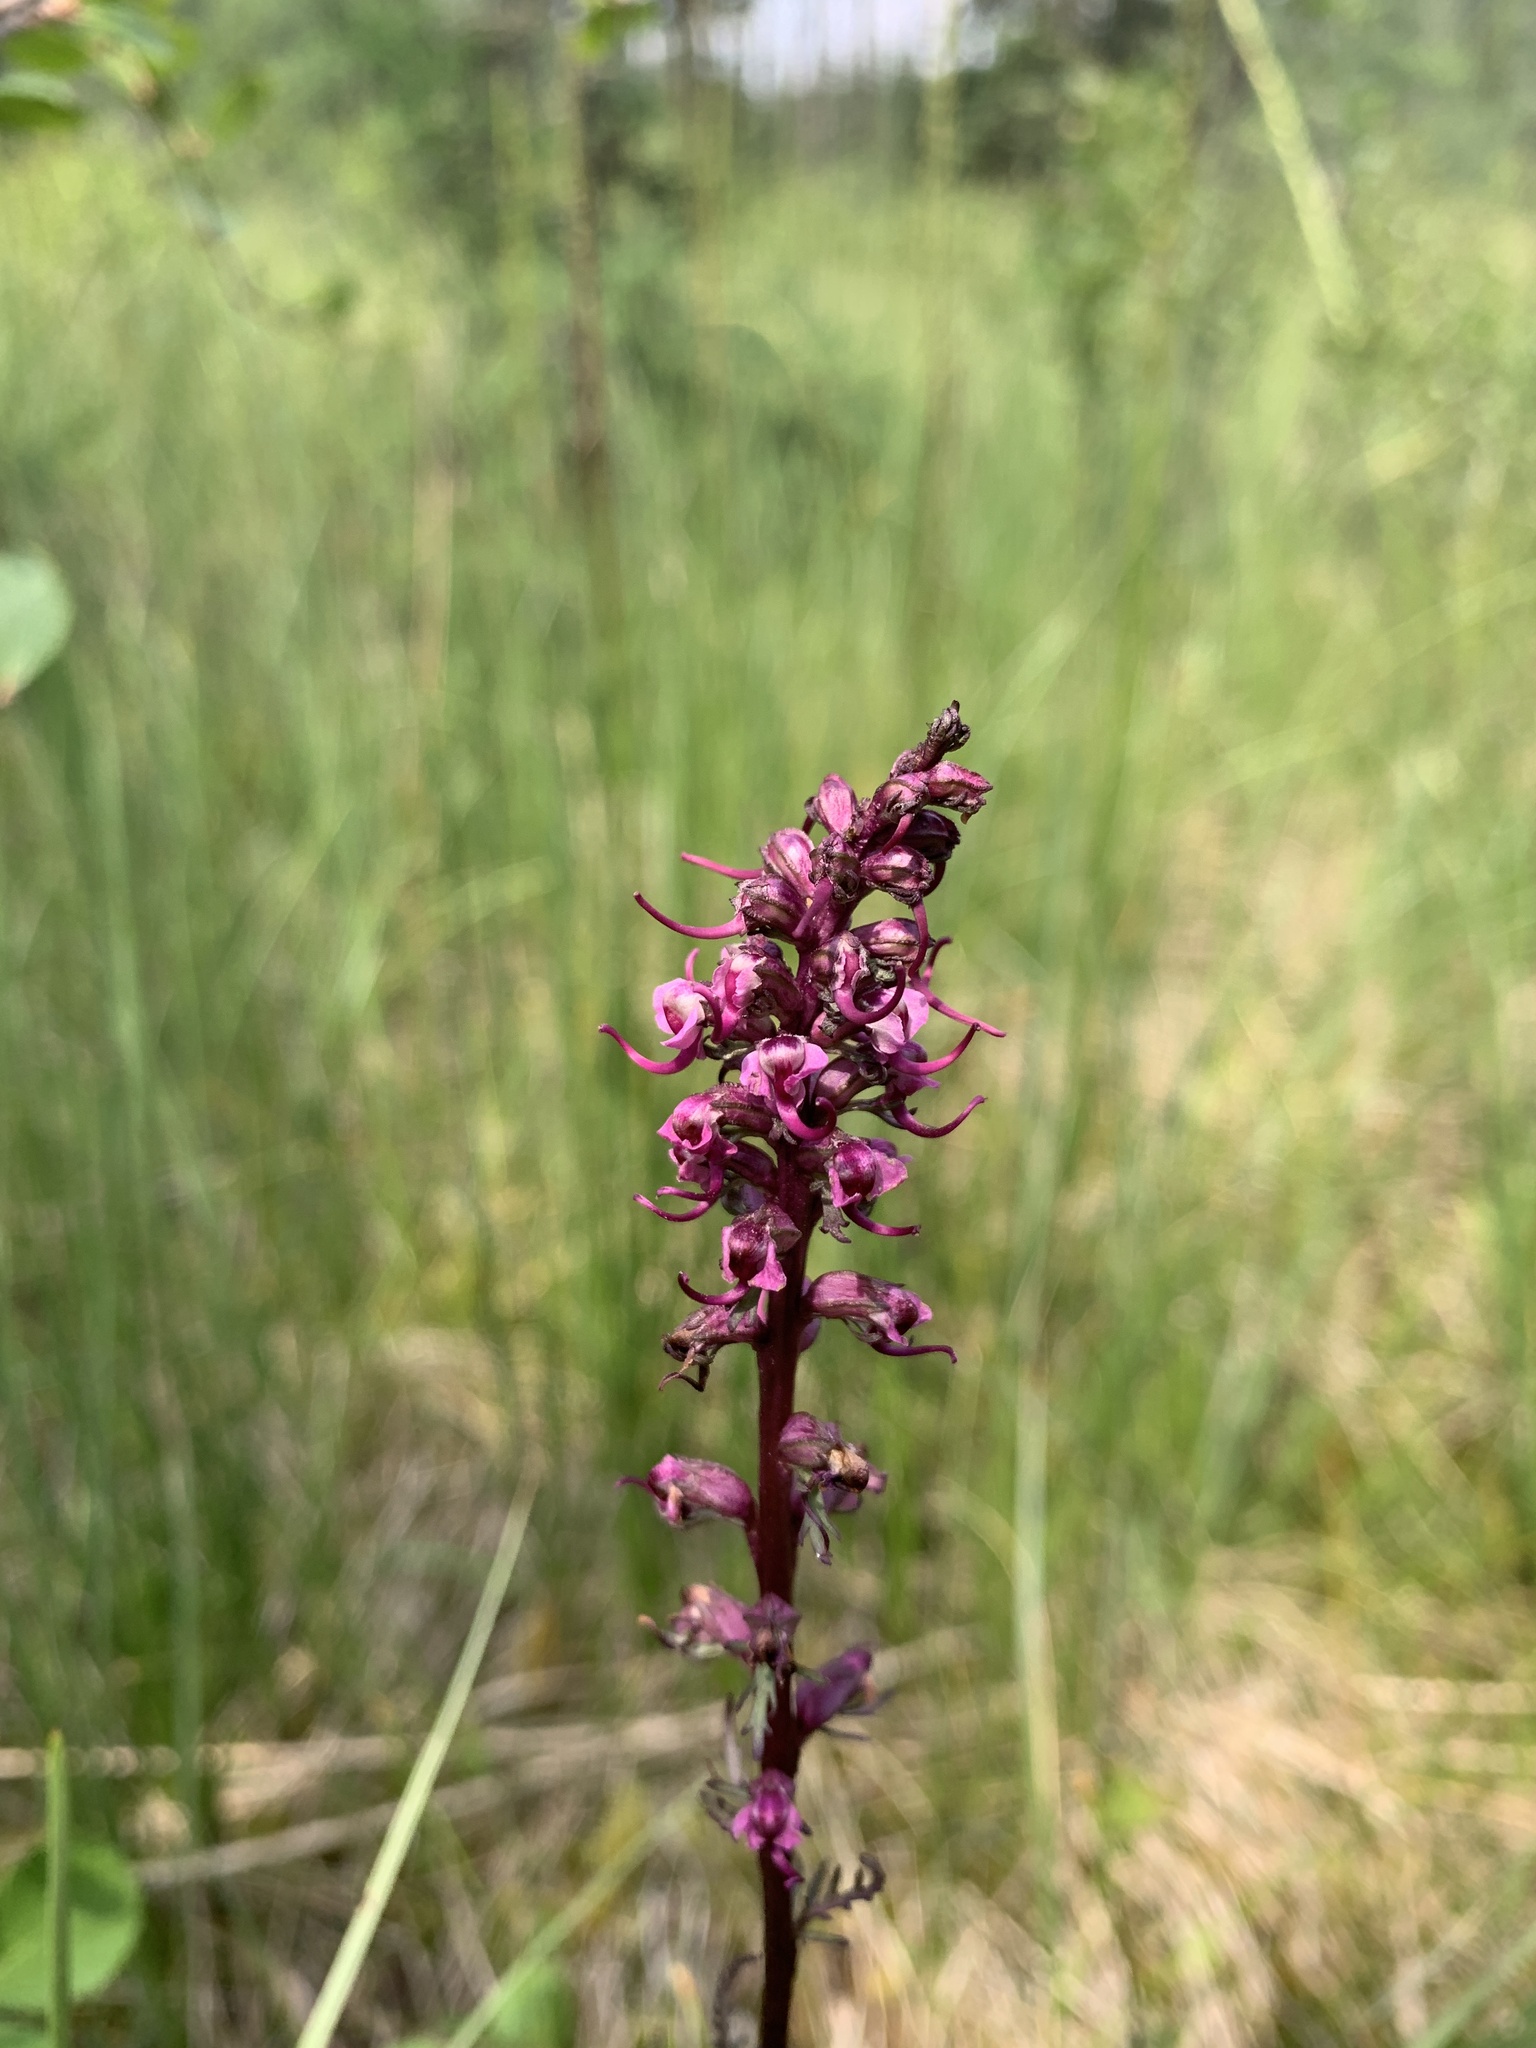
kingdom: Plantae
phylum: Tracheophyta
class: Magnoliopsida
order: Lamiales
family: Orobanchaceae
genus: Pedicularis
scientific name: Pedicularis groenlandica
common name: Elephant's-head
